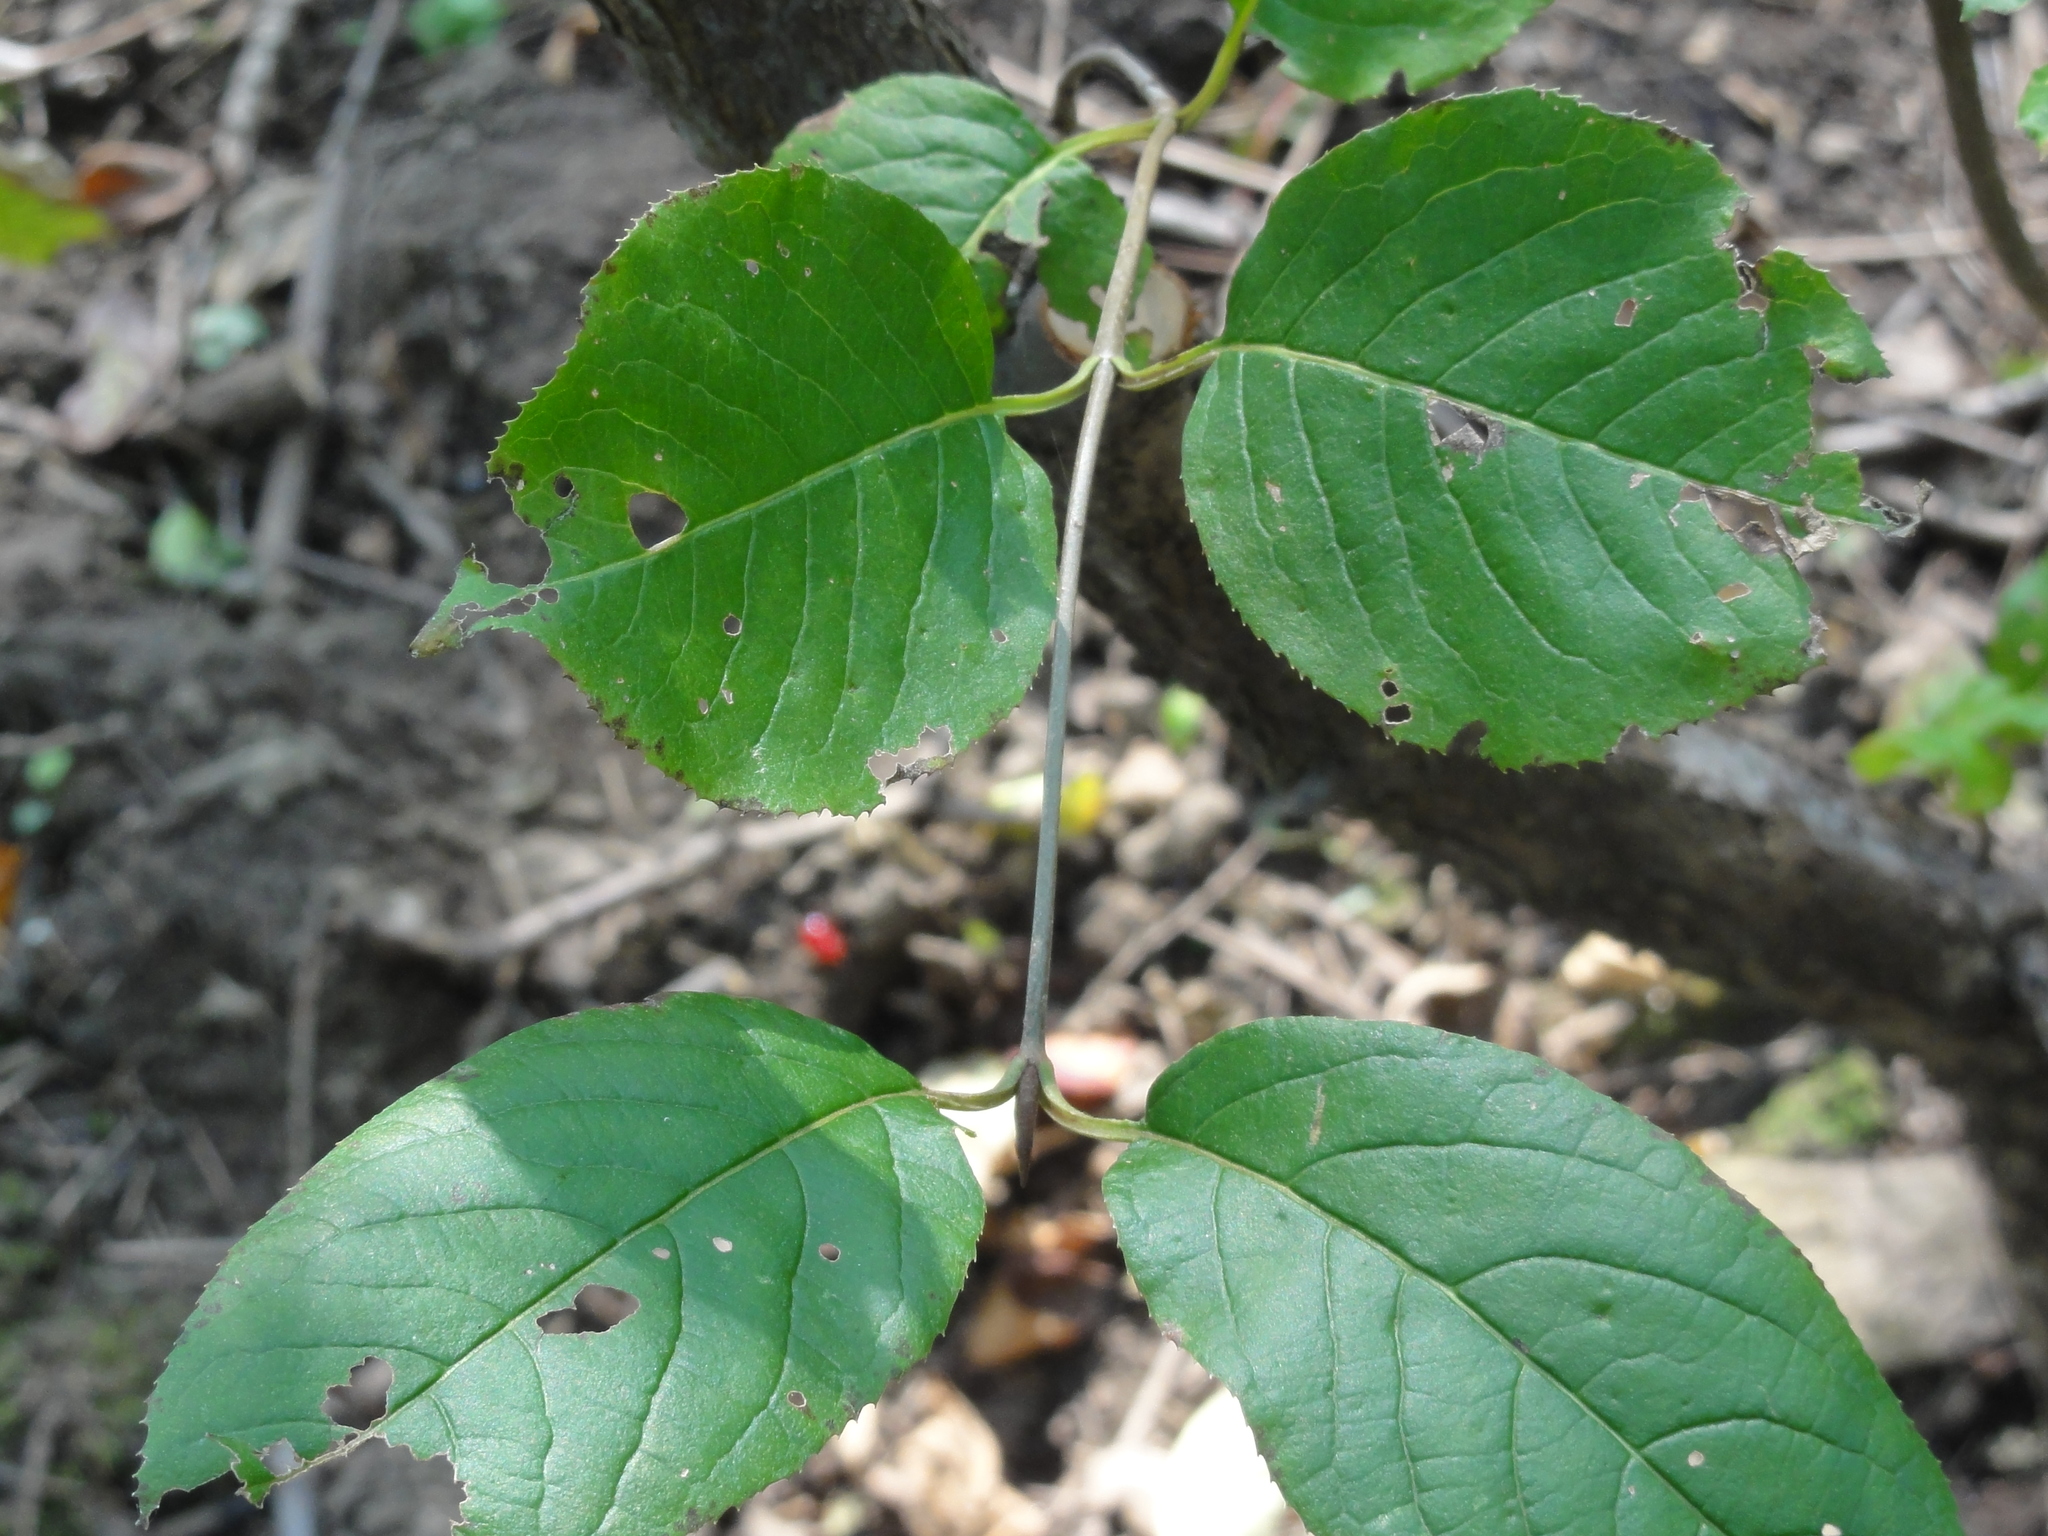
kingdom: Plantae
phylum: Tracheophyta
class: Magnoliopsida
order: Dipsacales
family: Viburnaceae
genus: Viburnum
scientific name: Viburnum lentago
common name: Black haw
